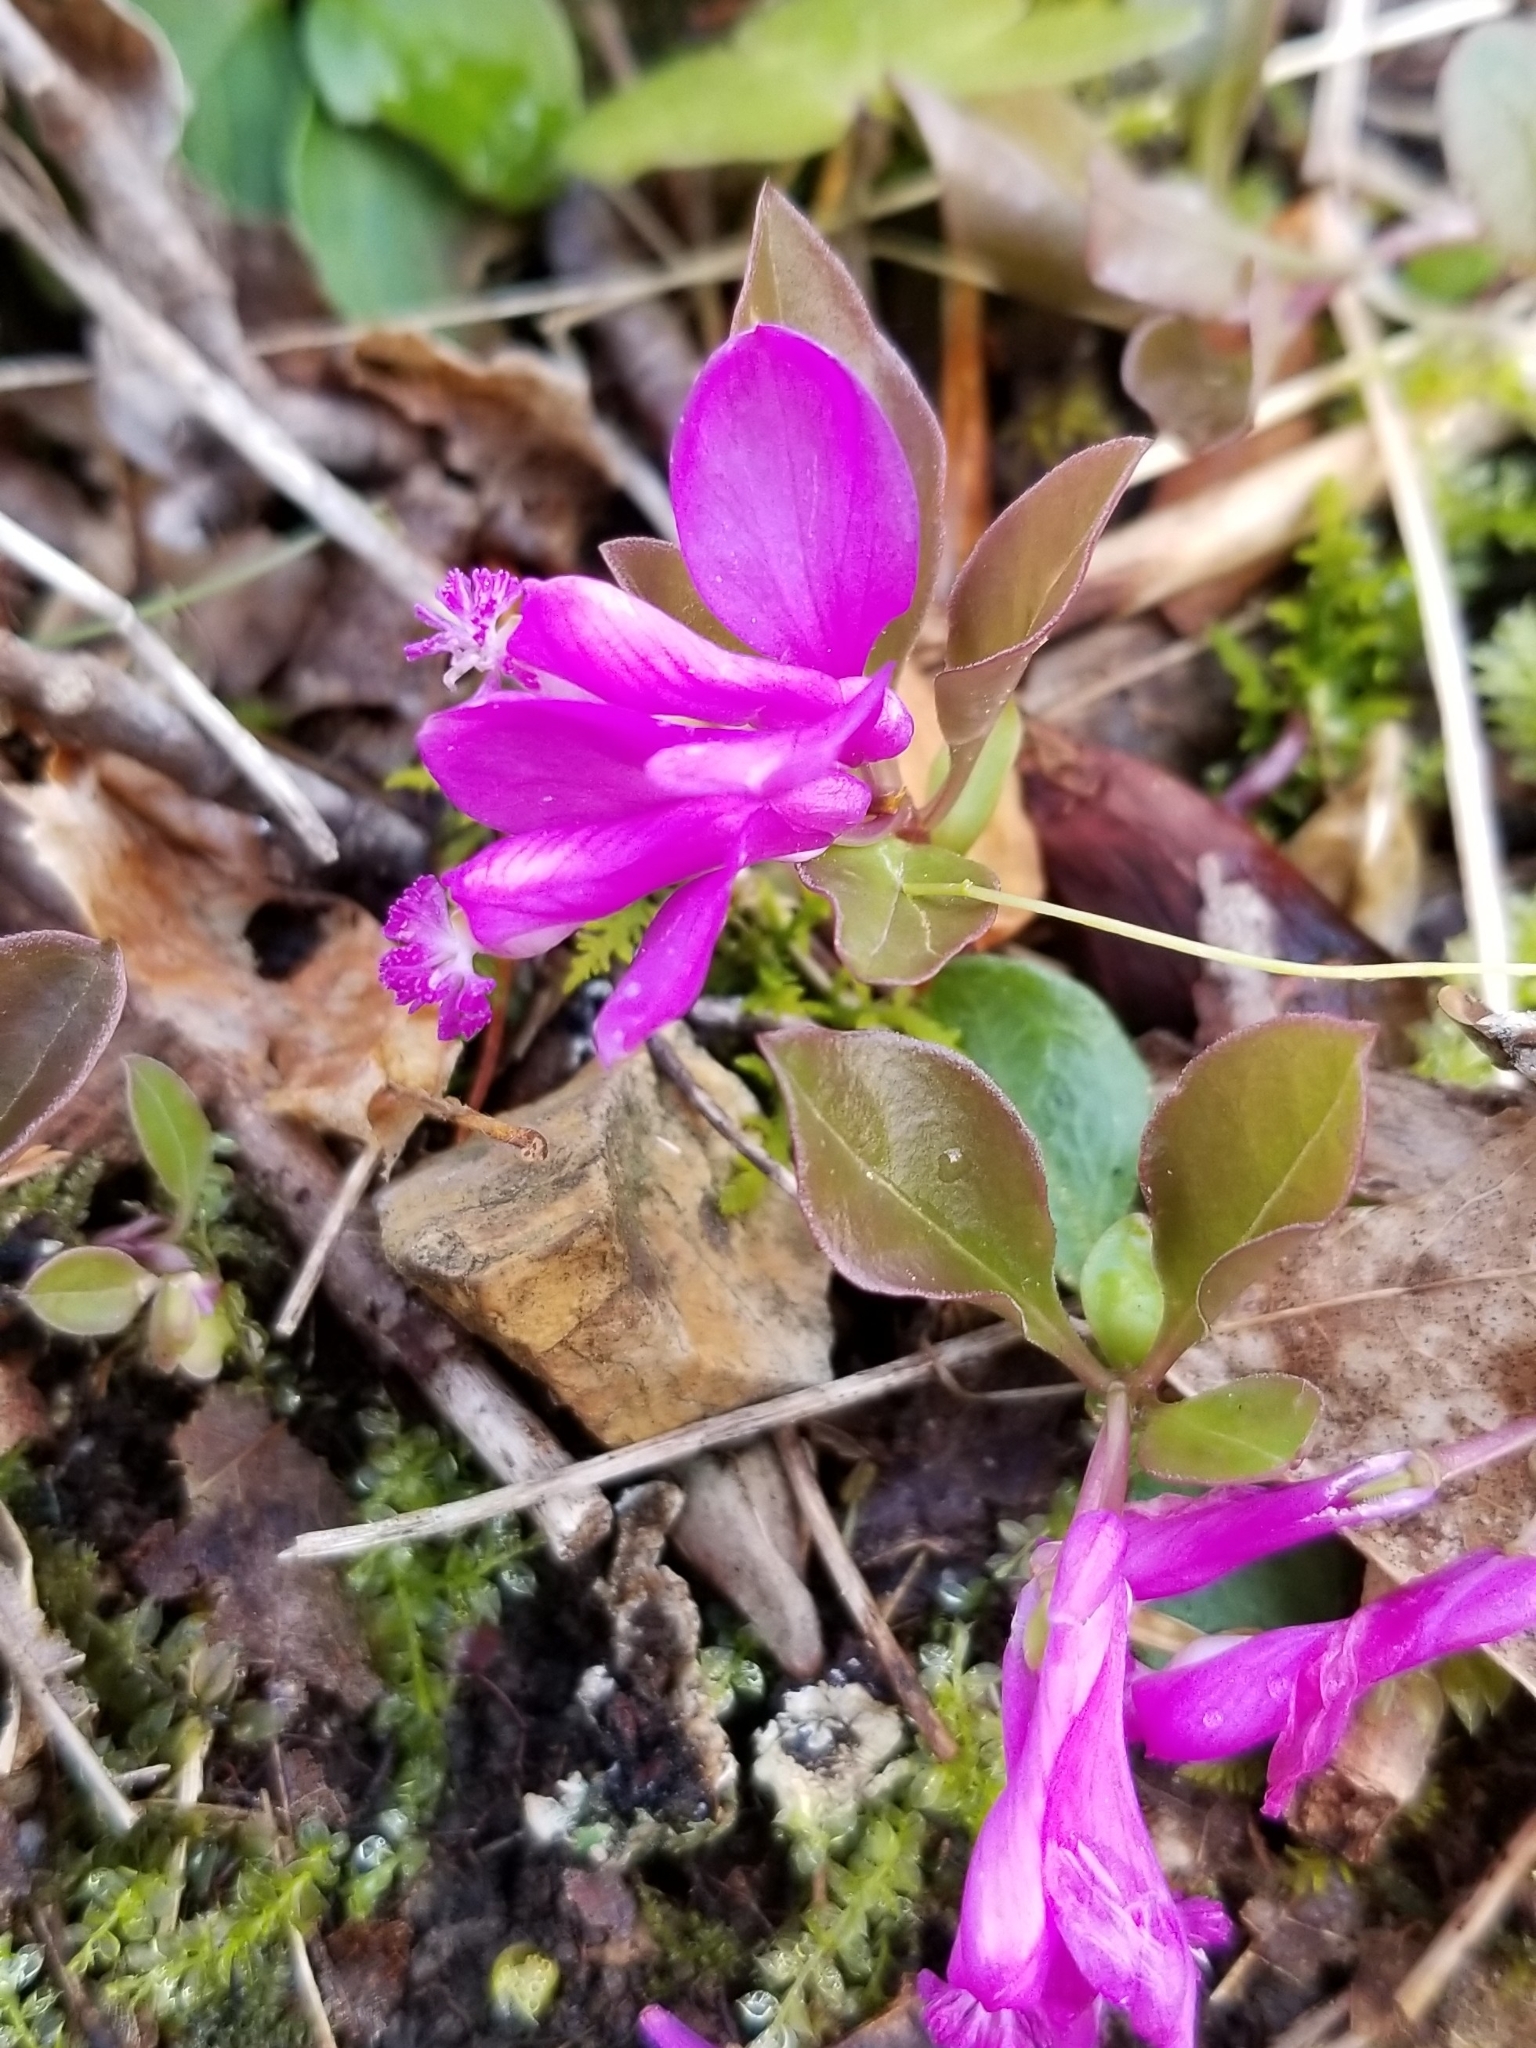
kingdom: Plantae
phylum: Tracheophyta
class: Magnoliopsida
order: Fabales
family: Polygalaceae
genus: Polygaloides
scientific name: Polygaloides paucifolia
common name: Bird-on-the-wing
